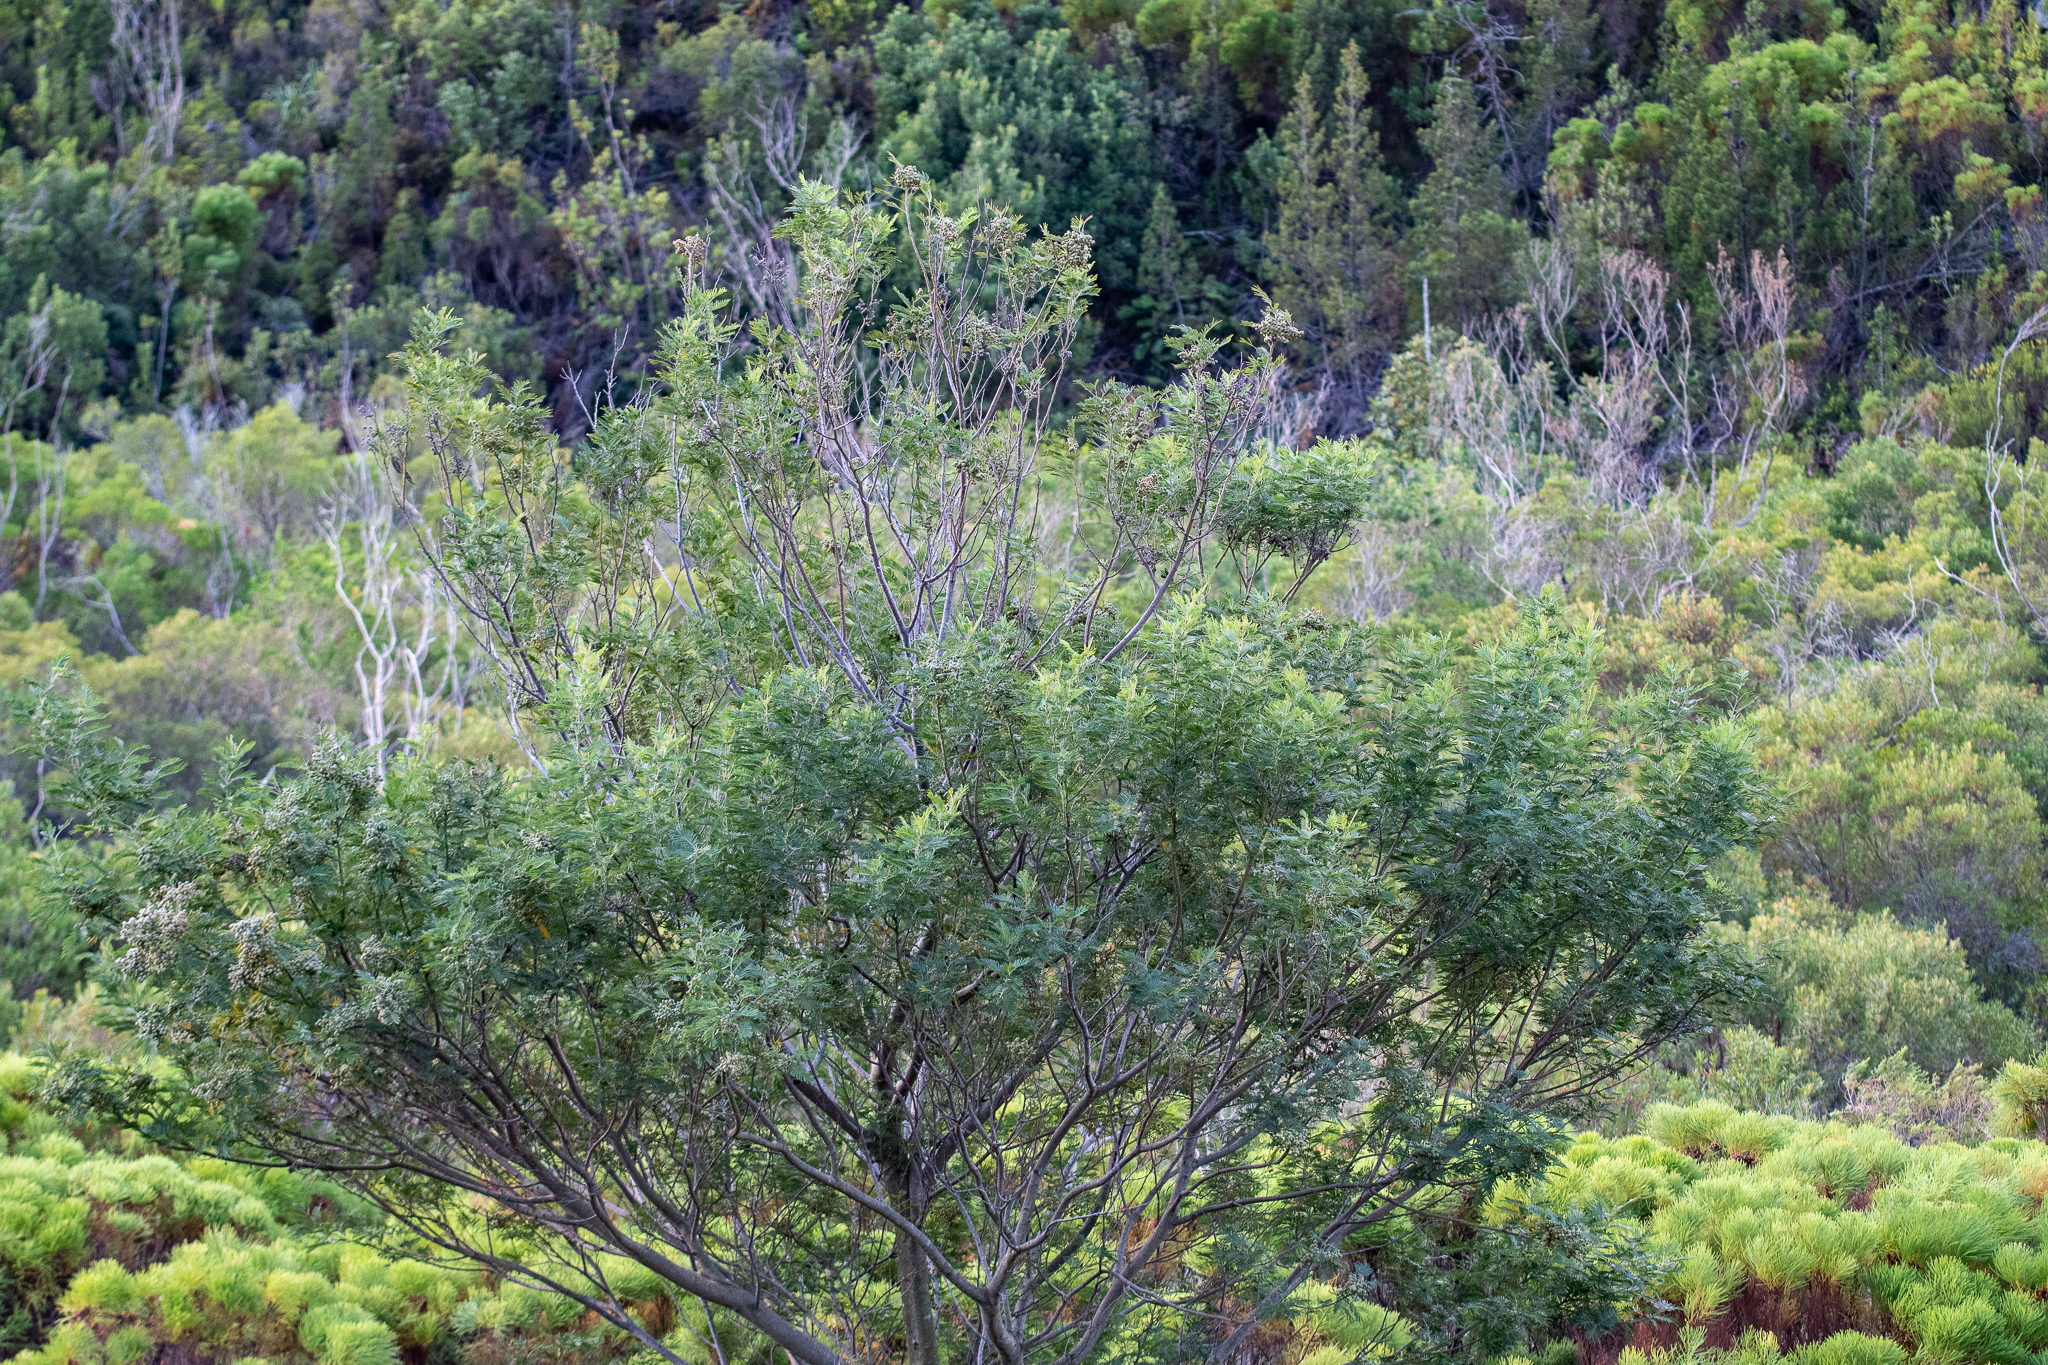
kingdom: Plantae
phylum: Tracheophyta
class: Magnoliopsida
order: Fabales
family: Fabaceae
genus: Acacia
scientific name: Acacia mearnsii
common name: Black wattle
